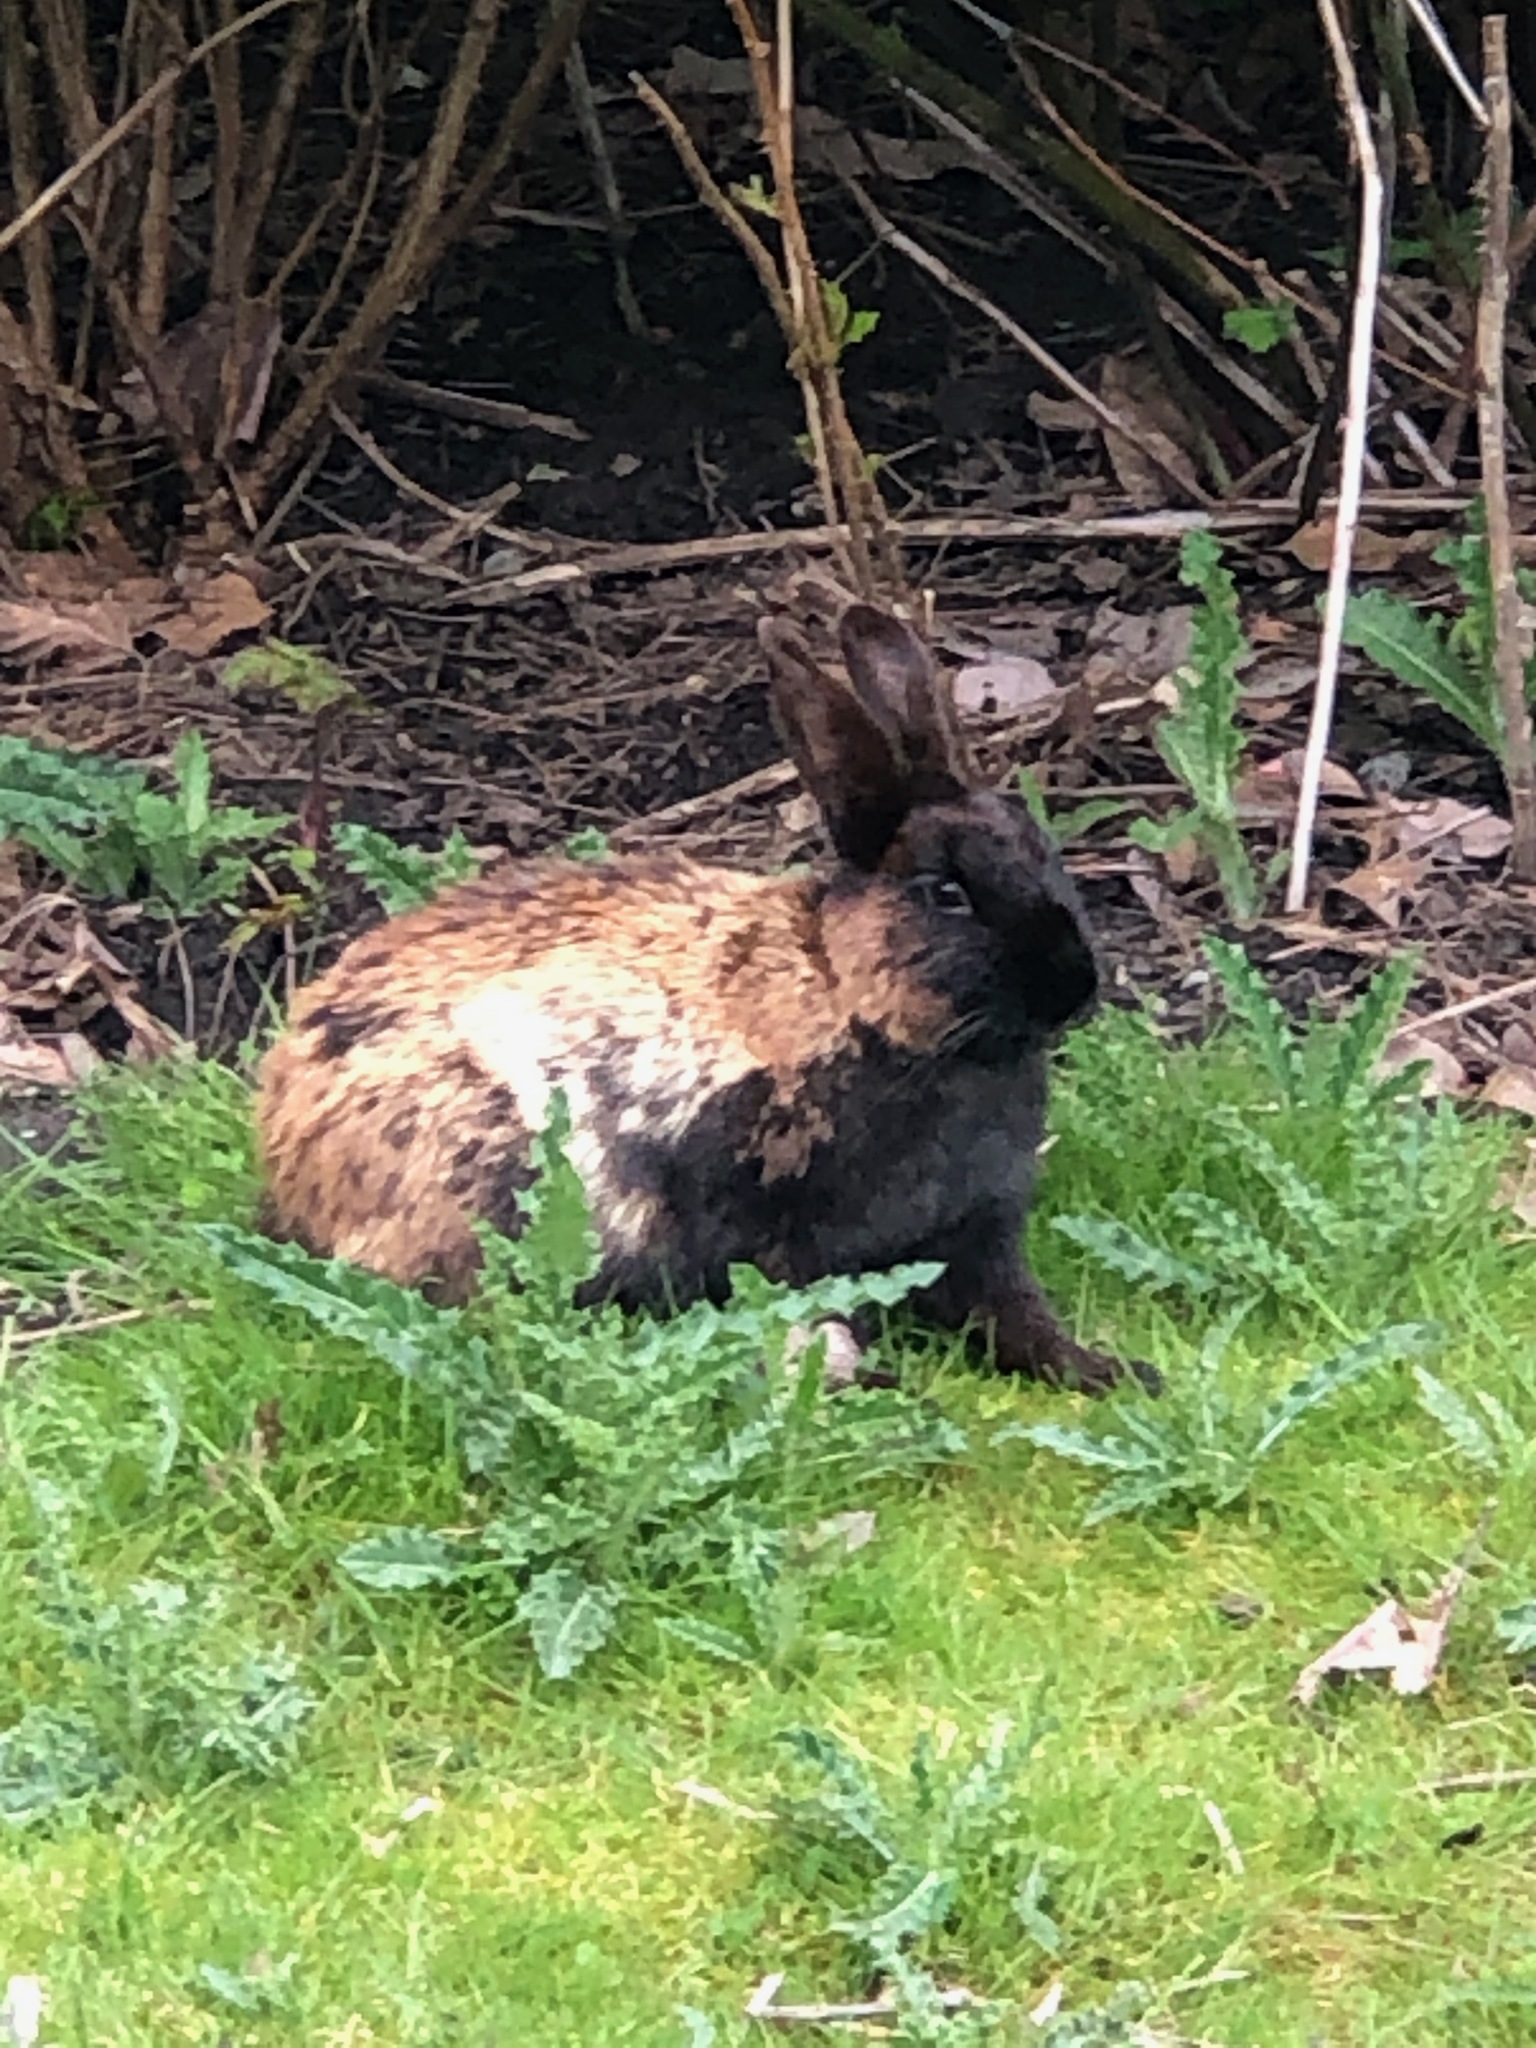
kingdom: Animalia
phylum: Chordata
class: Mammalia
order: Lagomorpha
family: Leporidae
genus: Oryctolagus
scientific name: Oryctolagus cuniculus
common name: European rabbit
